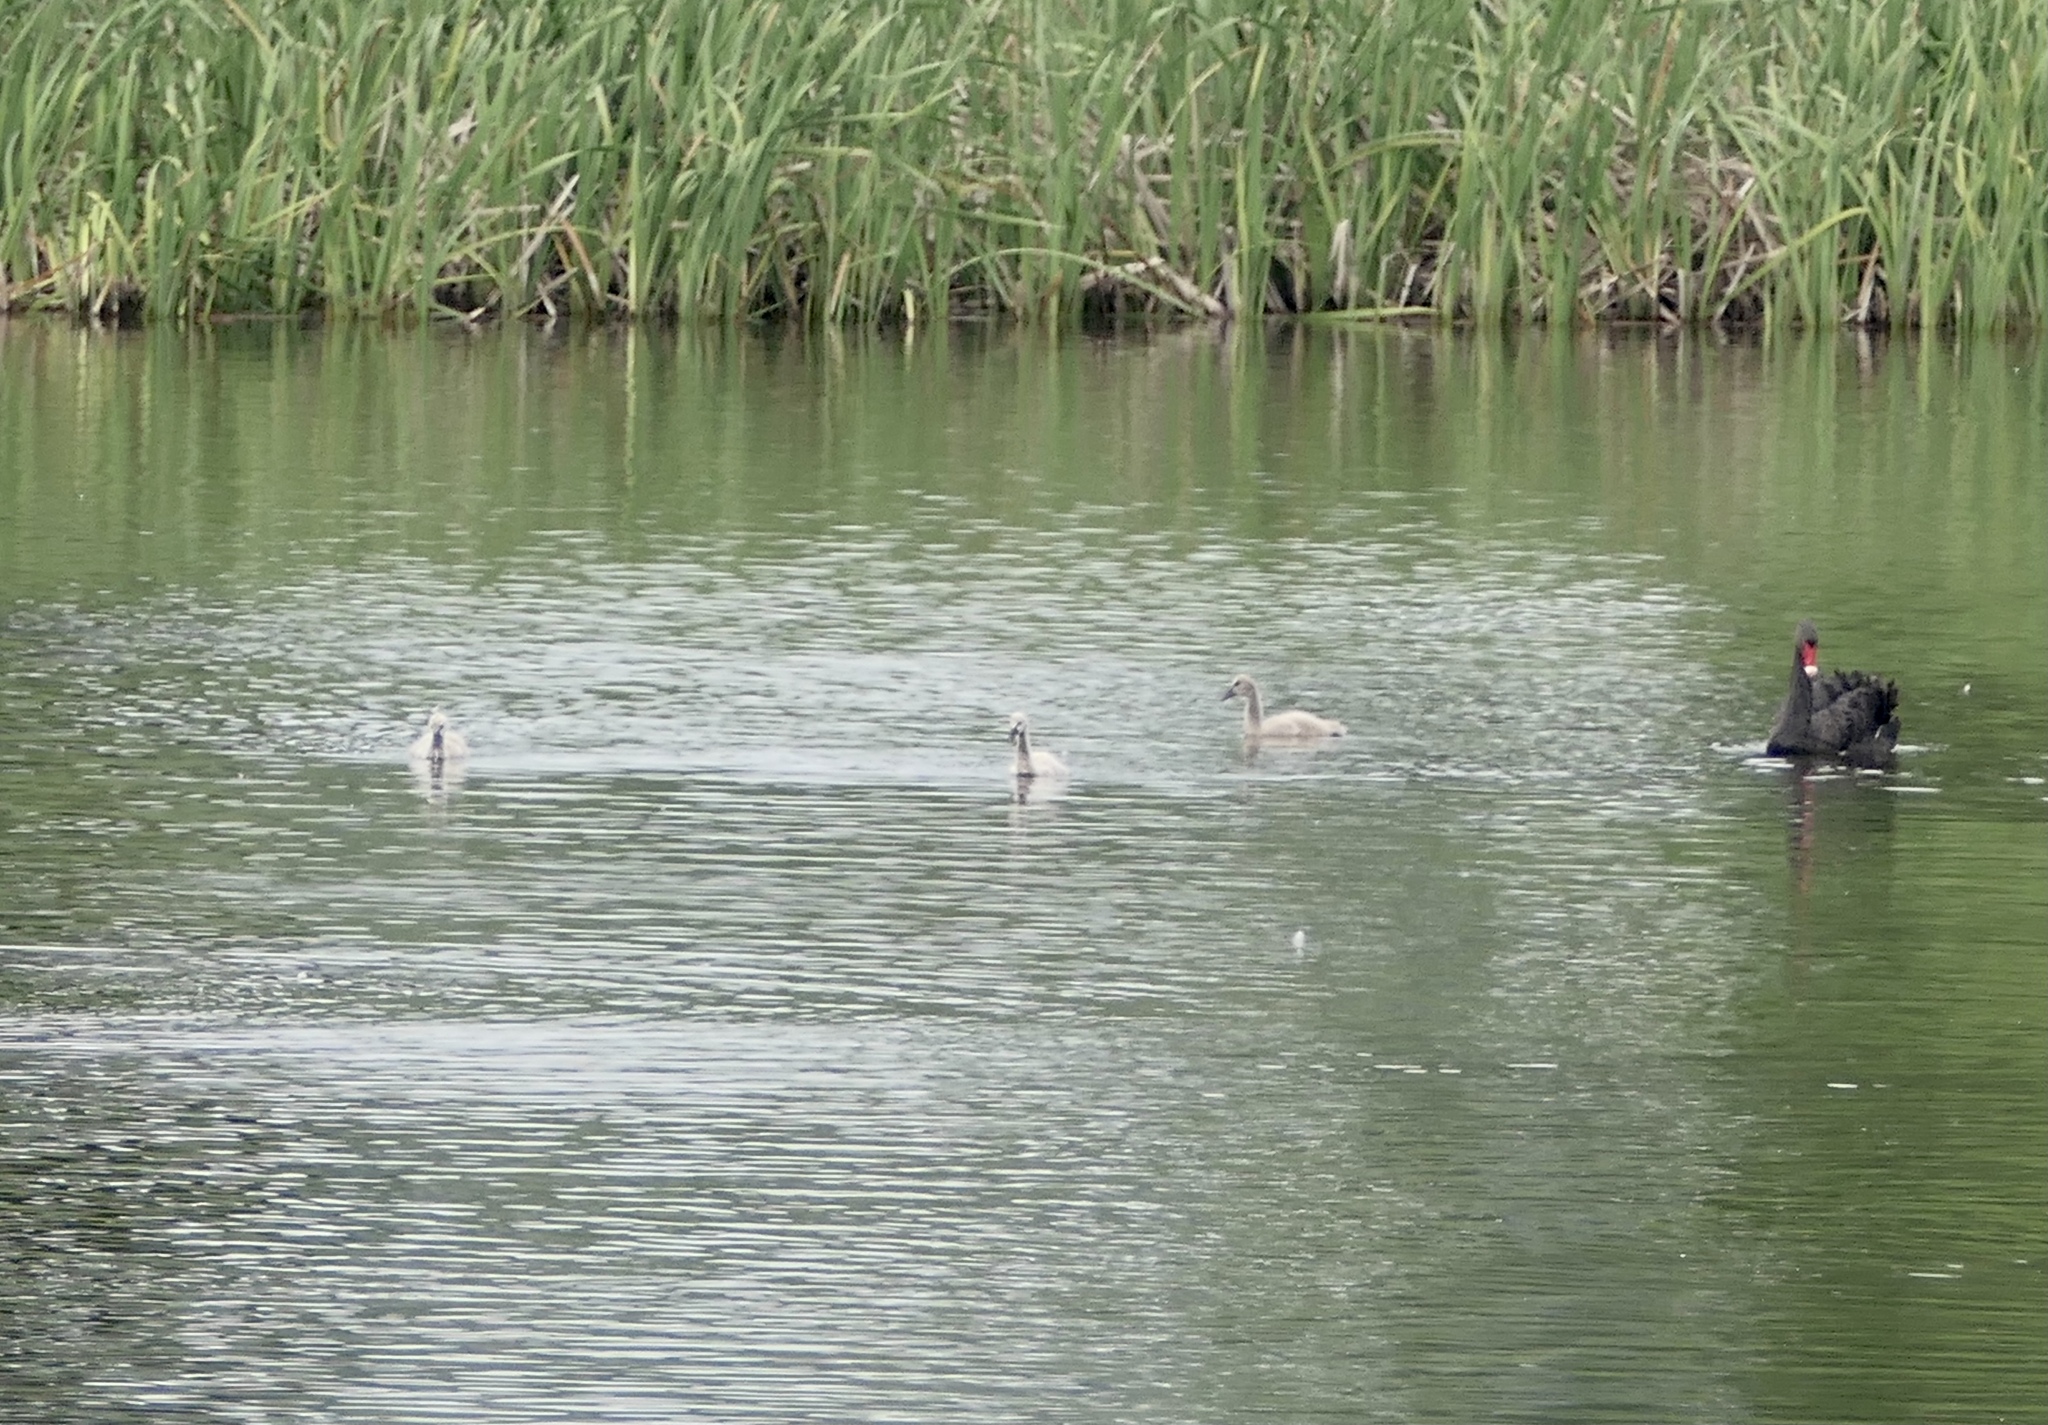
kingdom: Animalia
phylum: Chordata
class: Aves
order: Anseriformes
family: Anatidae
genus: Cygnus
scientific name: Cygnus atratus
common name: Black swan
